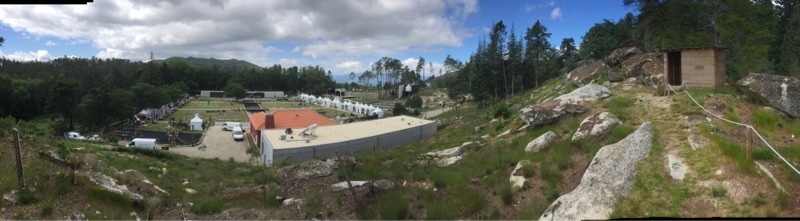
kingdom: Plantae
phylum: Tracheophyta
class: Magnoliopsida
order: Ericales
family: Ericaceae
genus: Erica
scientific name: Erica cinerea
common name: Bell heather
